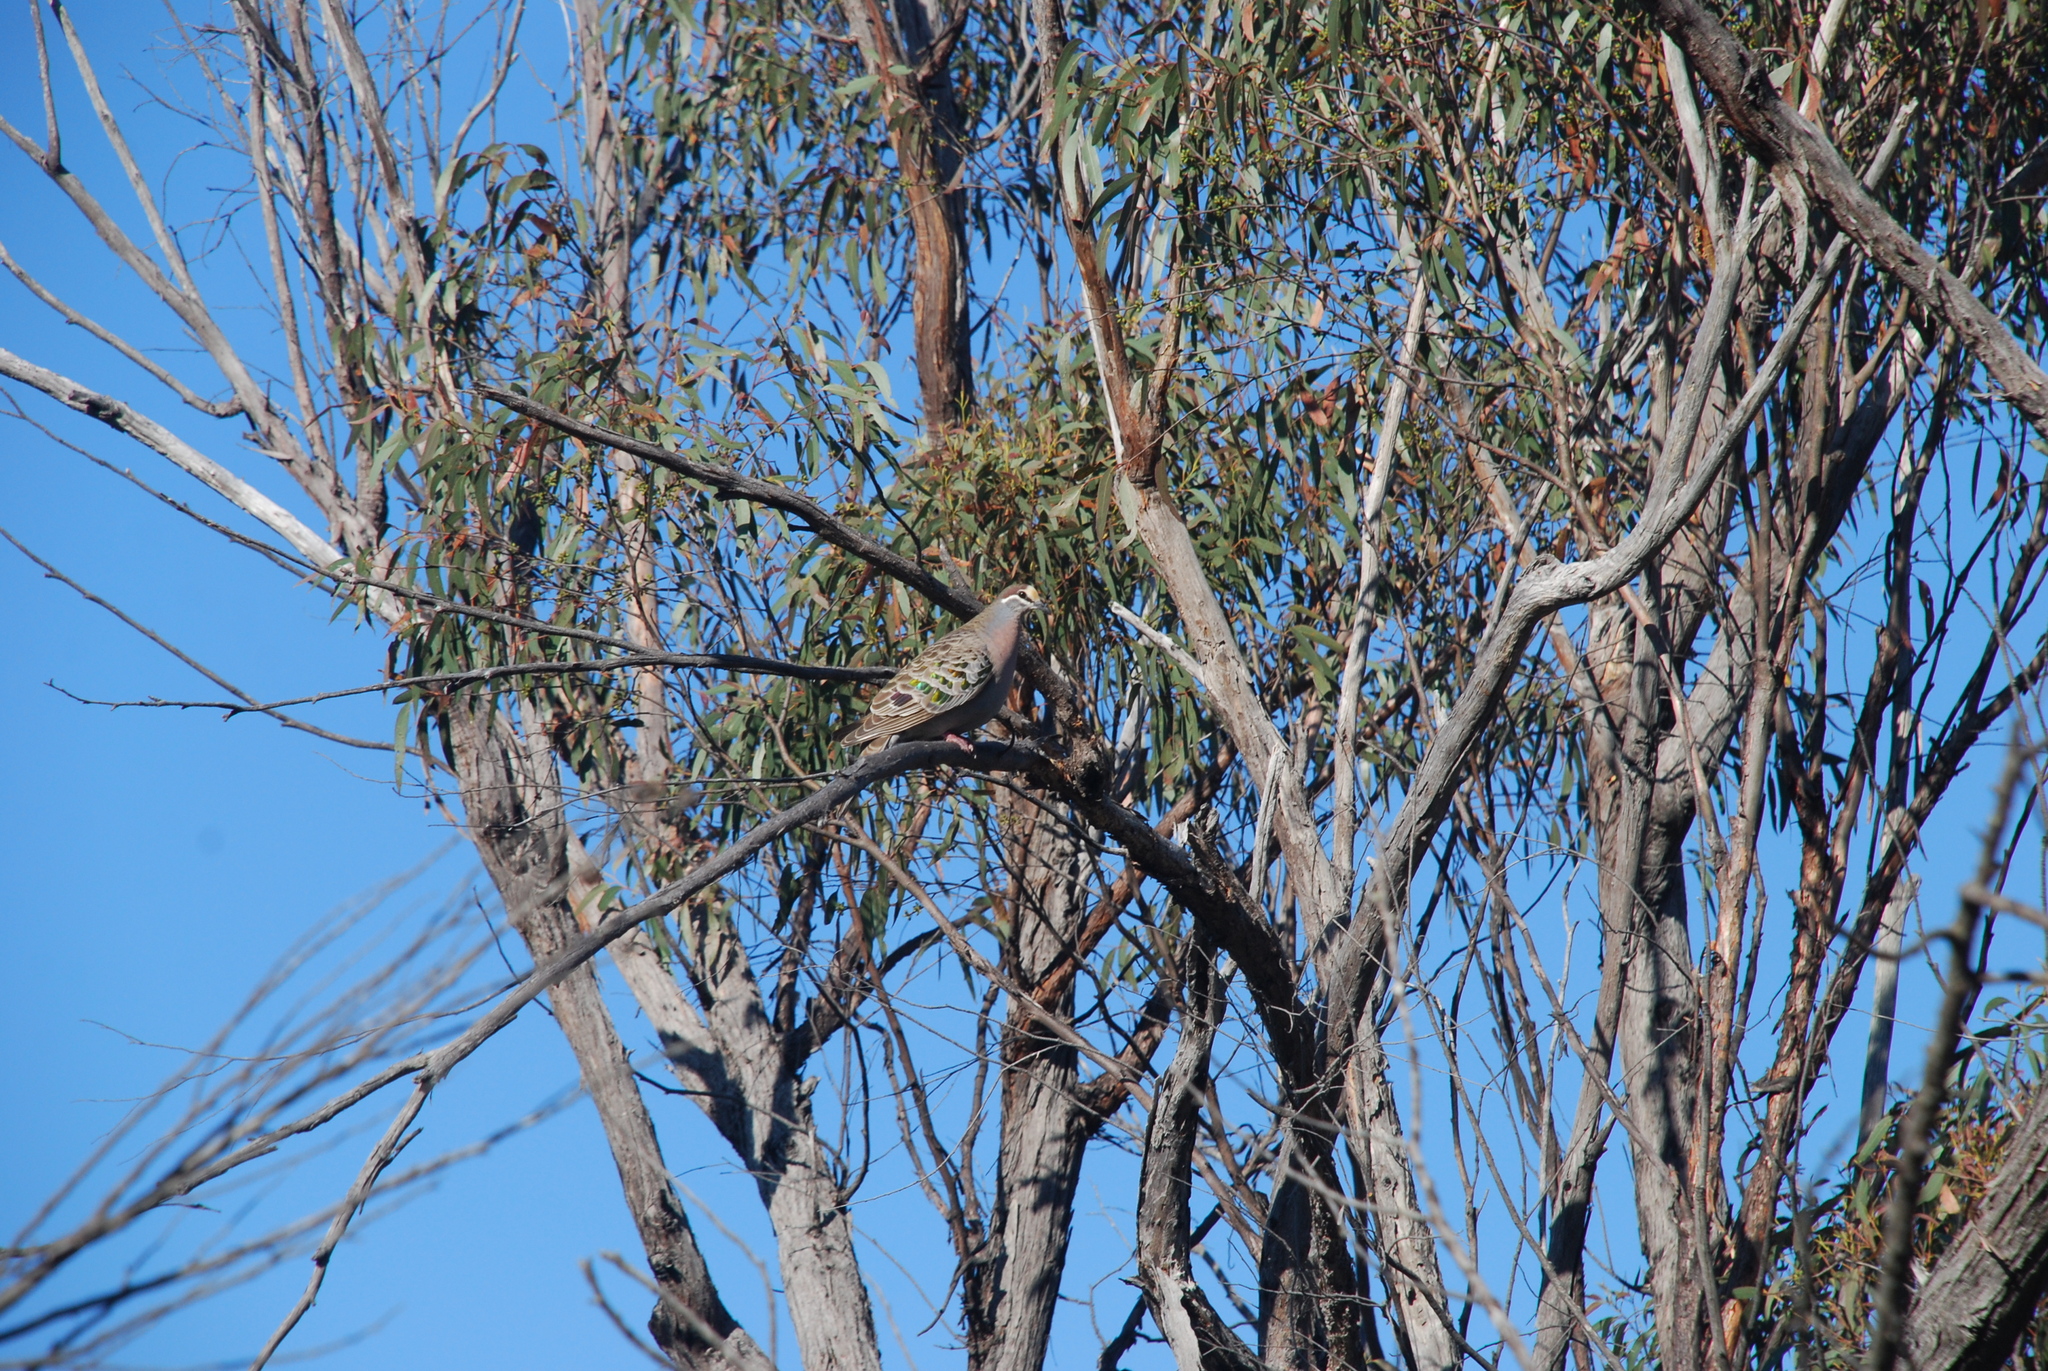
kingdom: Animalia
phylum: Chordata
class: Aves
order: Columbiformes
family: Columbidae
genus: Phaps
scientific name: Phaps chalcoptera
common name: Common bronzewing
